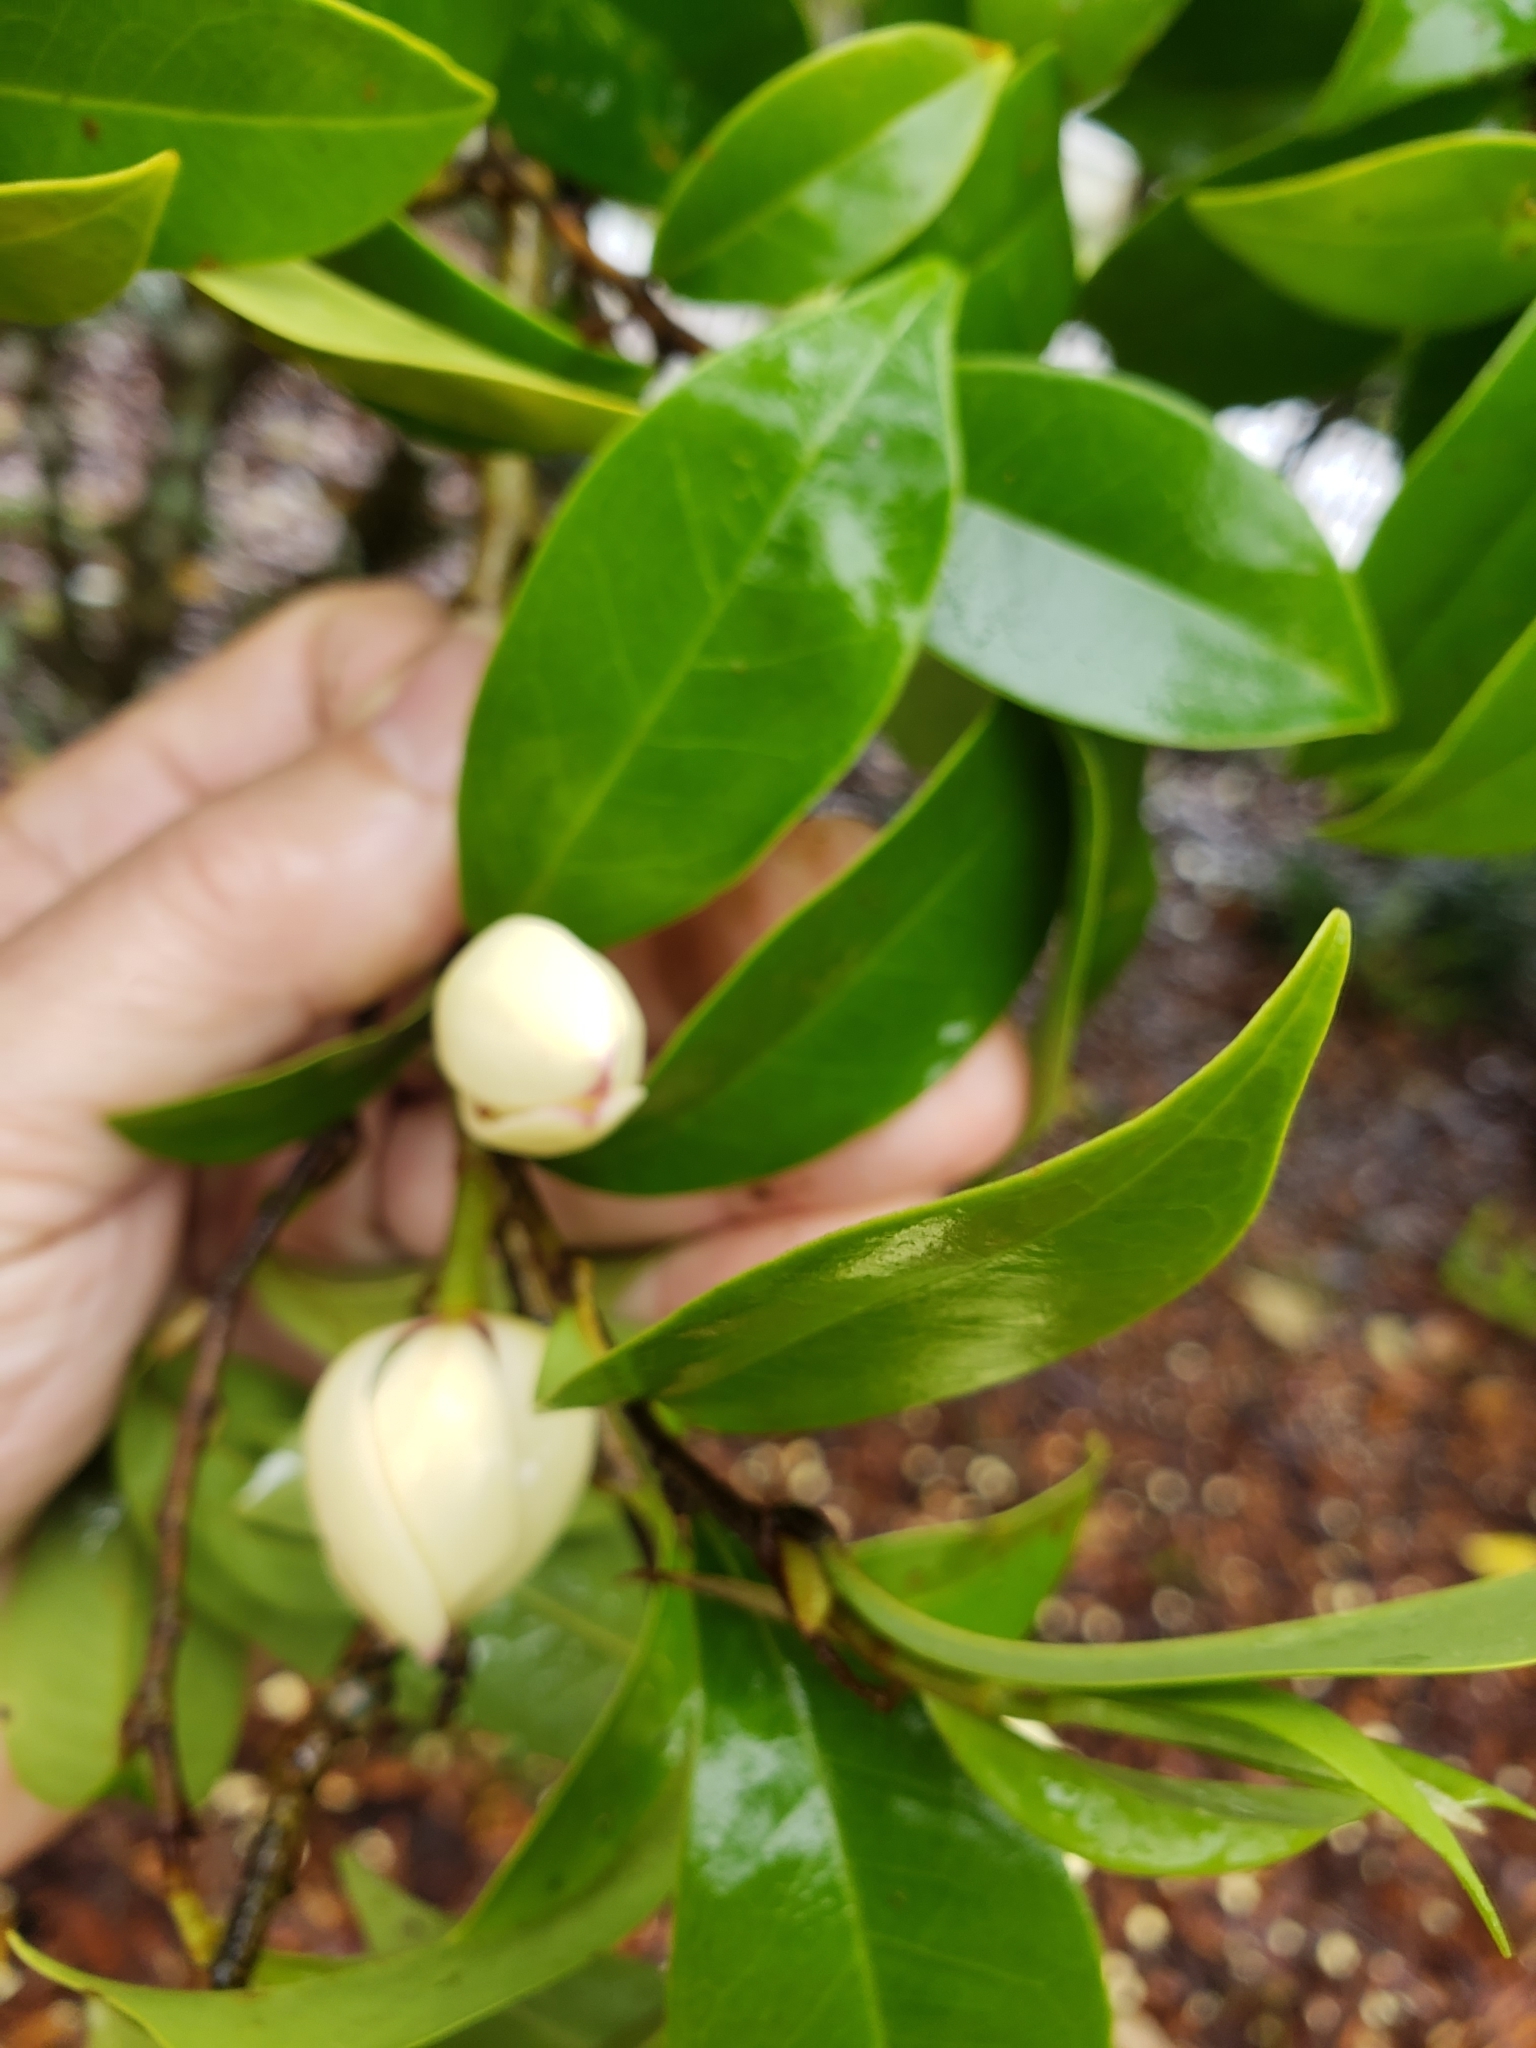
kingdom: Plantae
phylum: Tracheophyta
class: Magnoliopsida
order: Magnoliales
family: Magnoliaceae
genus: Magnolia
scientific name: Magnolia figo
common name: Banana shrub
